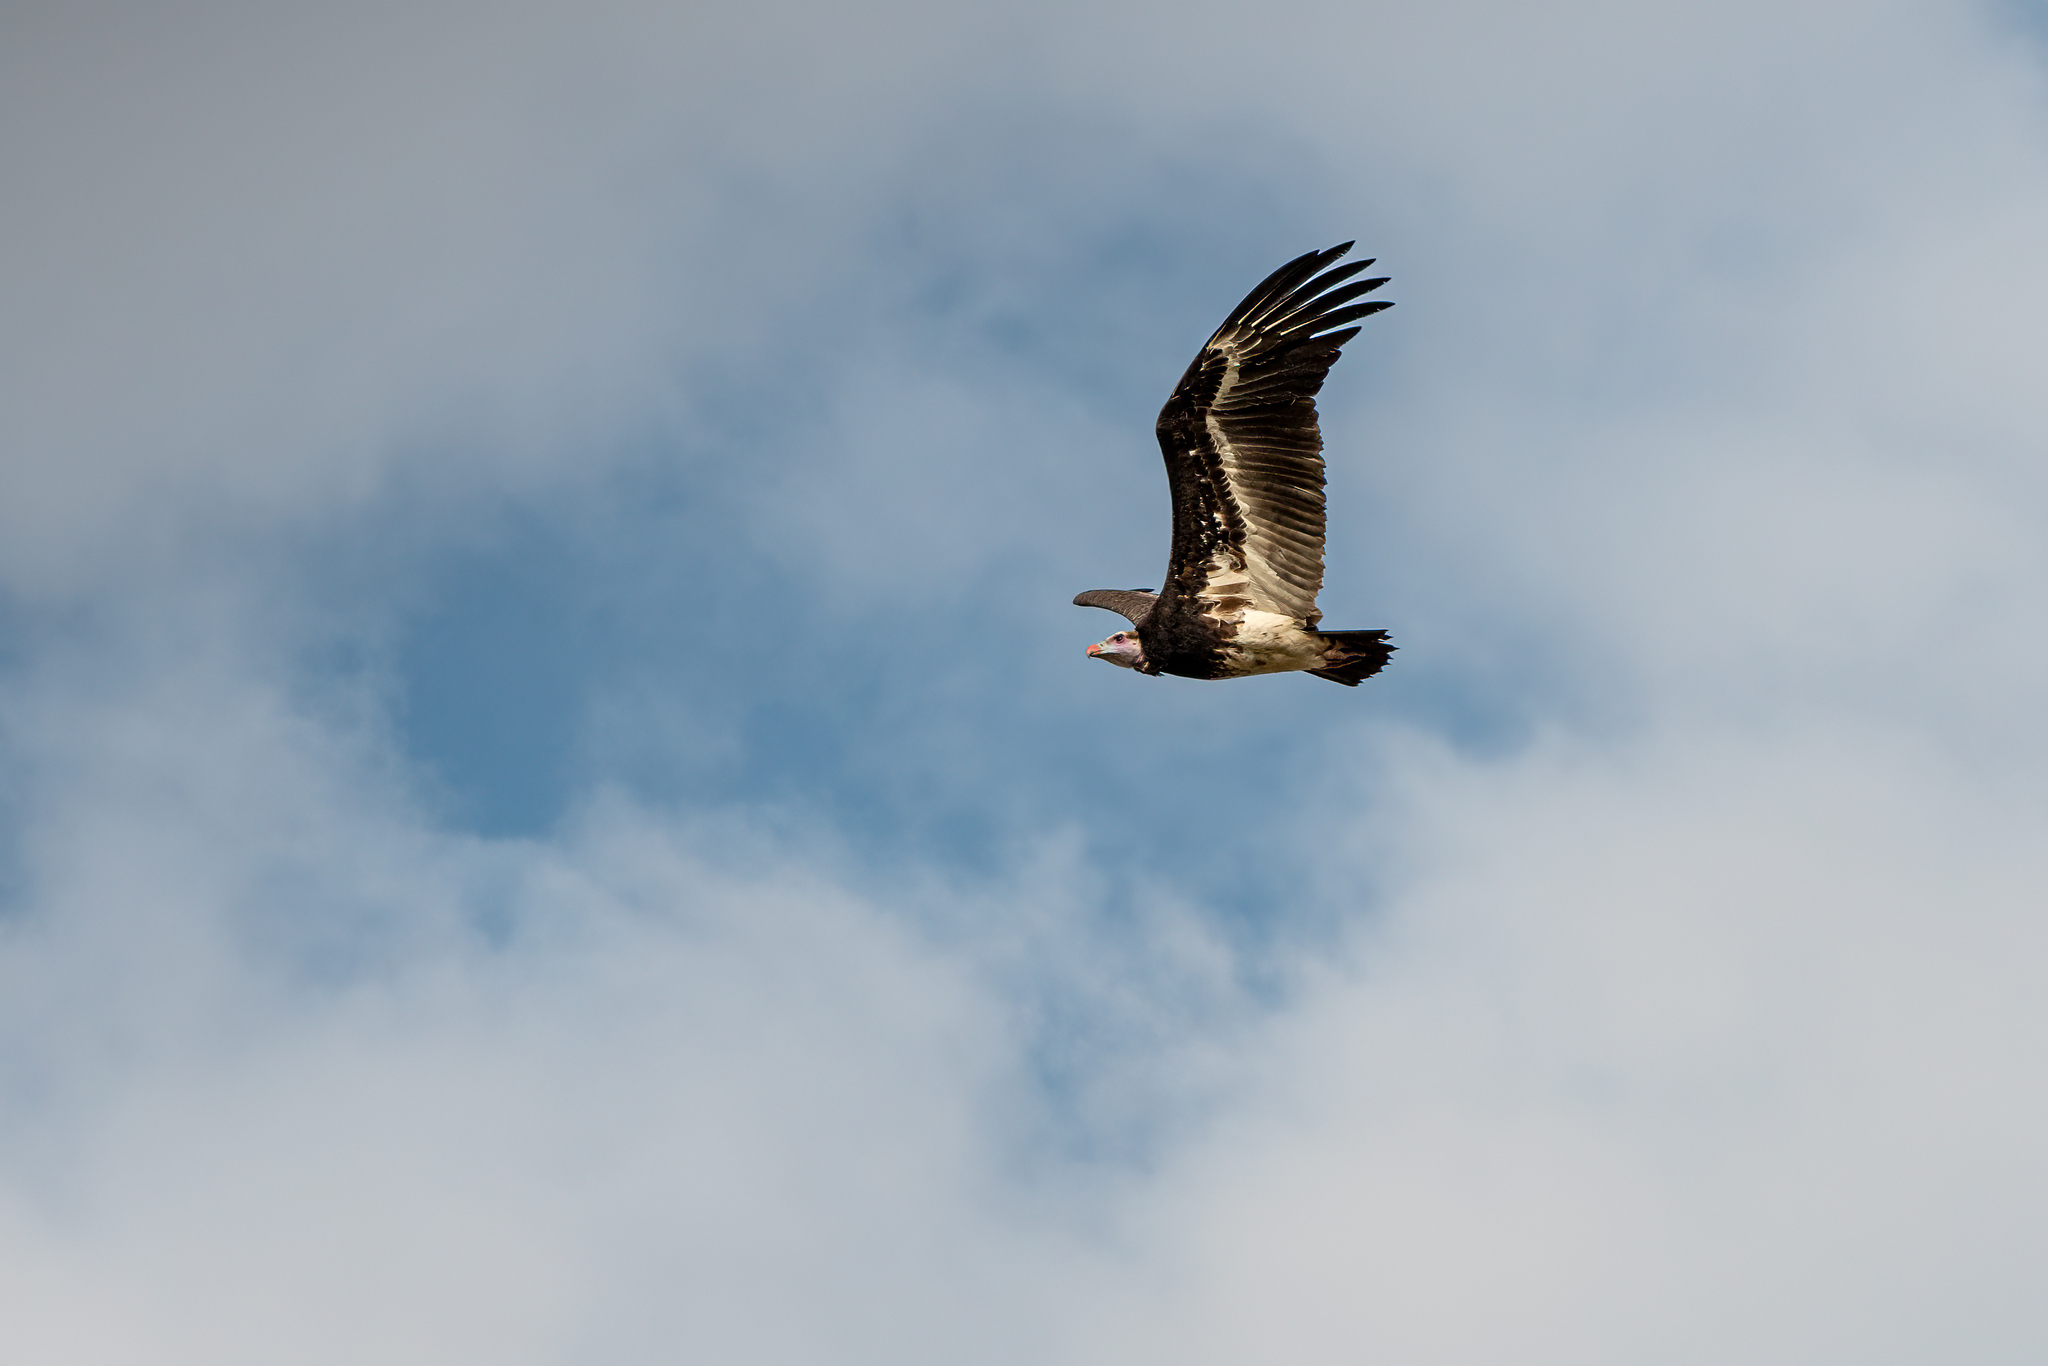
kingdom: Animalia
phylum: Chordata
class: Aves
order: Accipitriformes
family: Accipitridae
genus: Trigonoceps
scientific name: Trigonoceps occipitalis
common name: White-headed vulture
